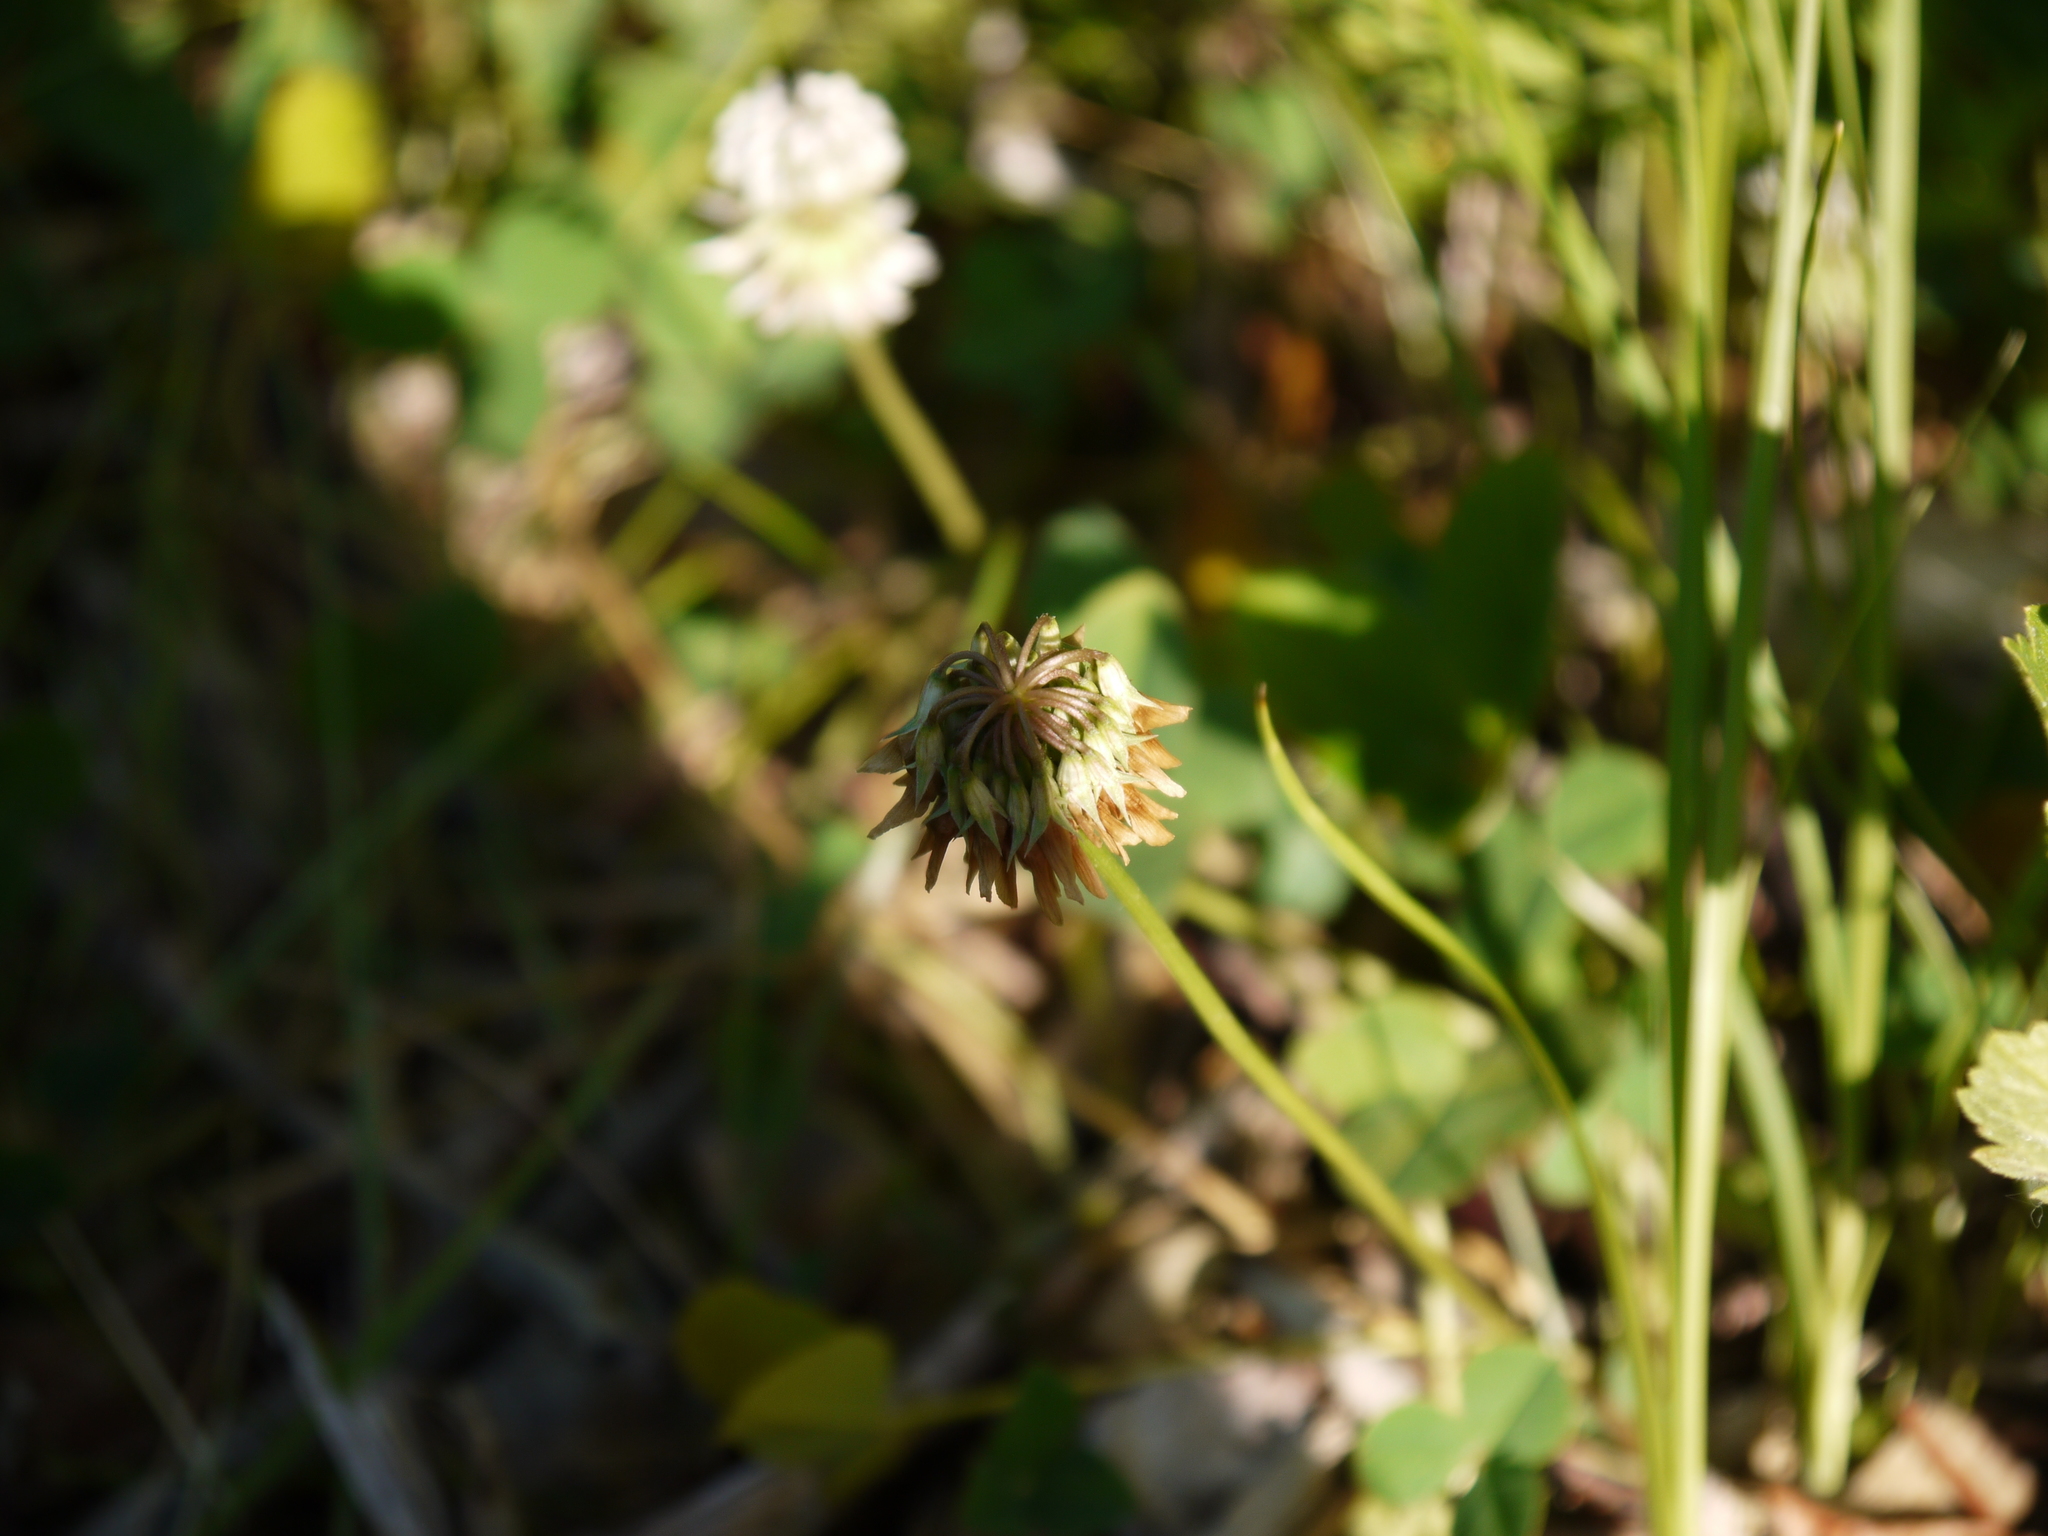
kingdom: Plantae
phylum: Tracheophyta
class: Magnoliopsida
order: Fabales
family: Fabaceae
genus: Trifolium
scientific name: Trifolium repens
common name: White clover
